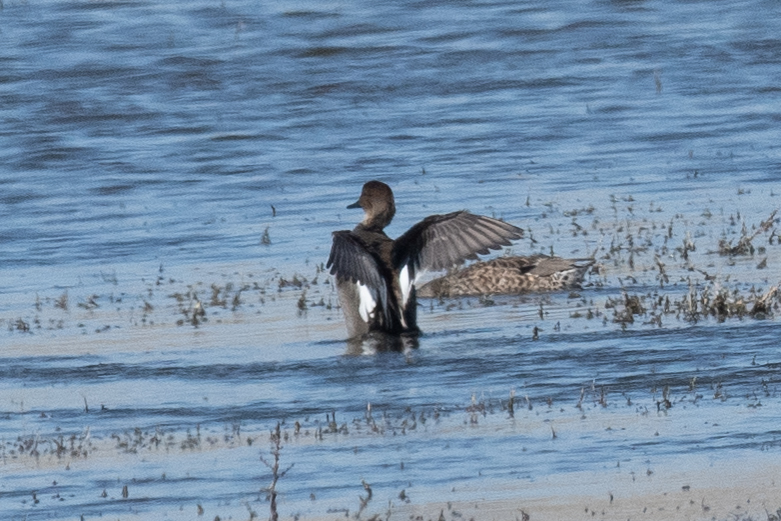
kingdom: Animalia
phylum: Chordata
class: Aves
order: Anseriformes
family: Anatidae
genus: Mareca
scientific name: Mareca strepera
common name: Gadwall
